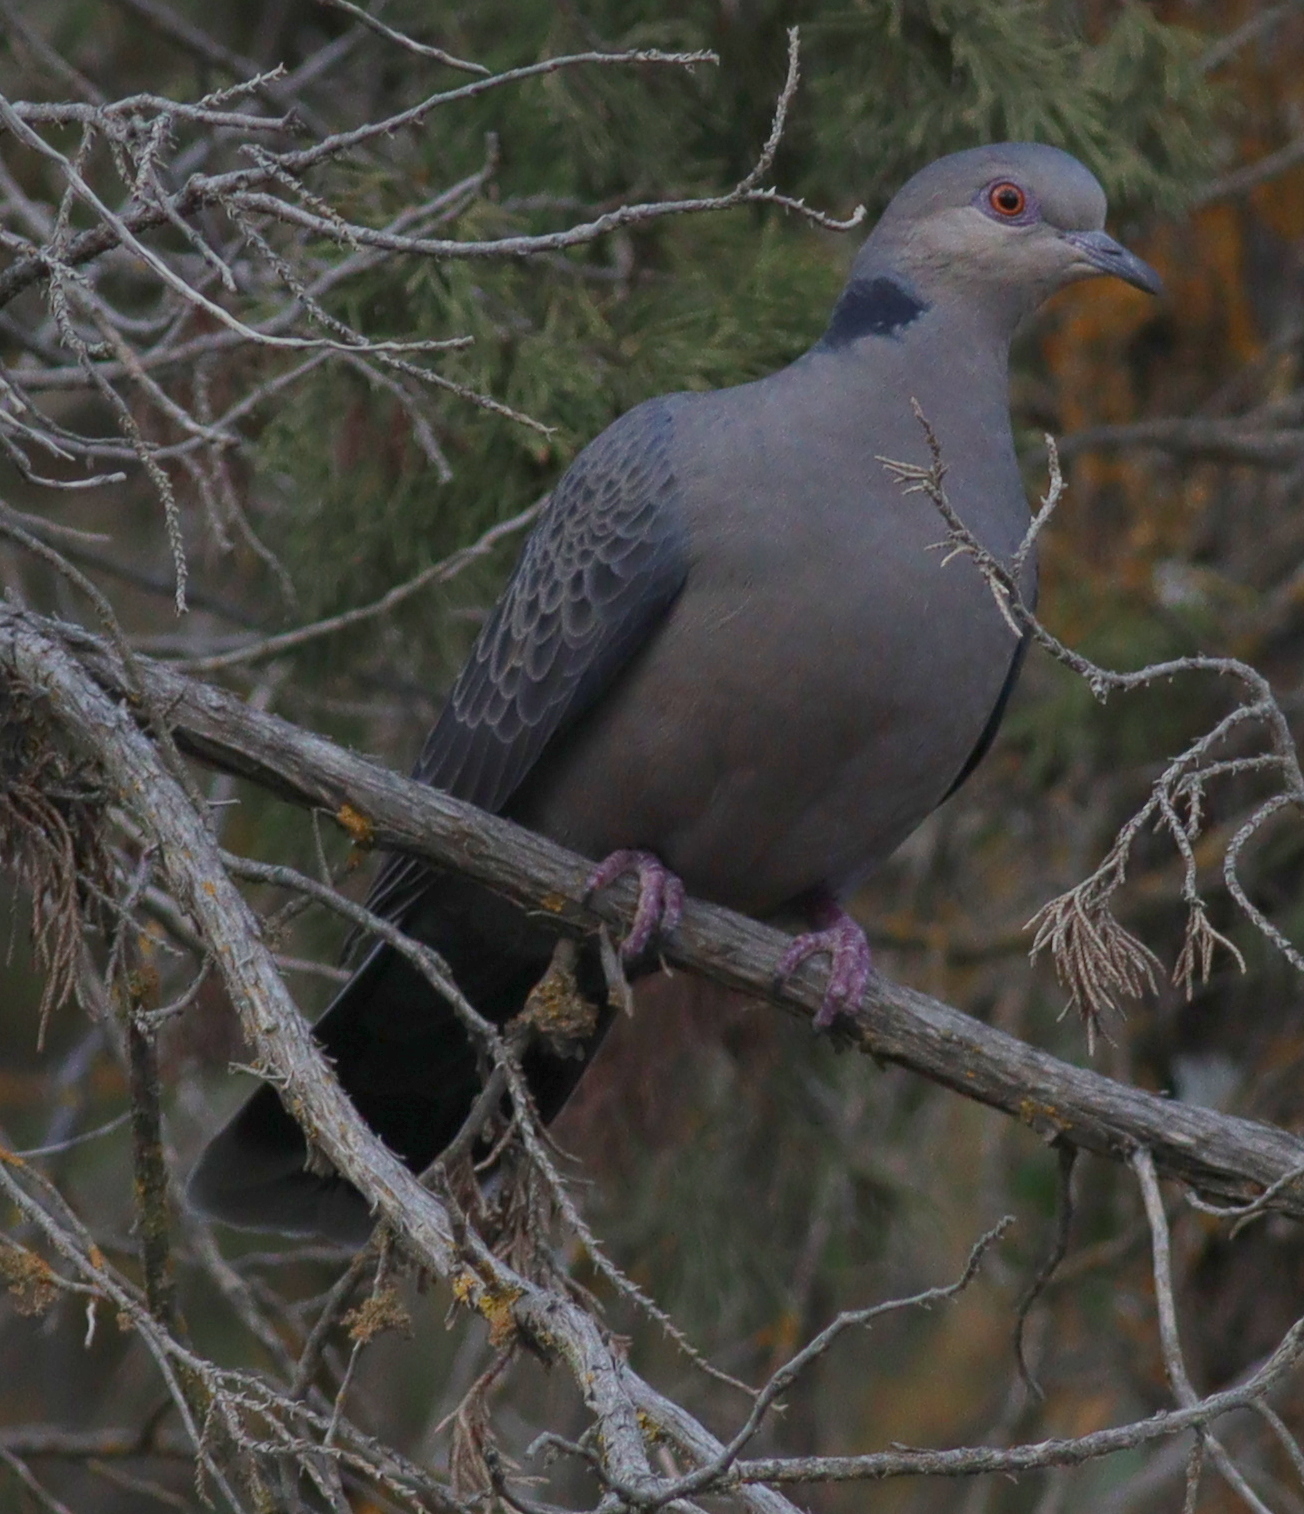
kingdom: Animalia
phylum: Chordata
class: Aves
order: Columbiformes
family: Columbidae
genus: Streptopelia
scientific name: Streptopelia lugens
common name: Dusky turtle dove
